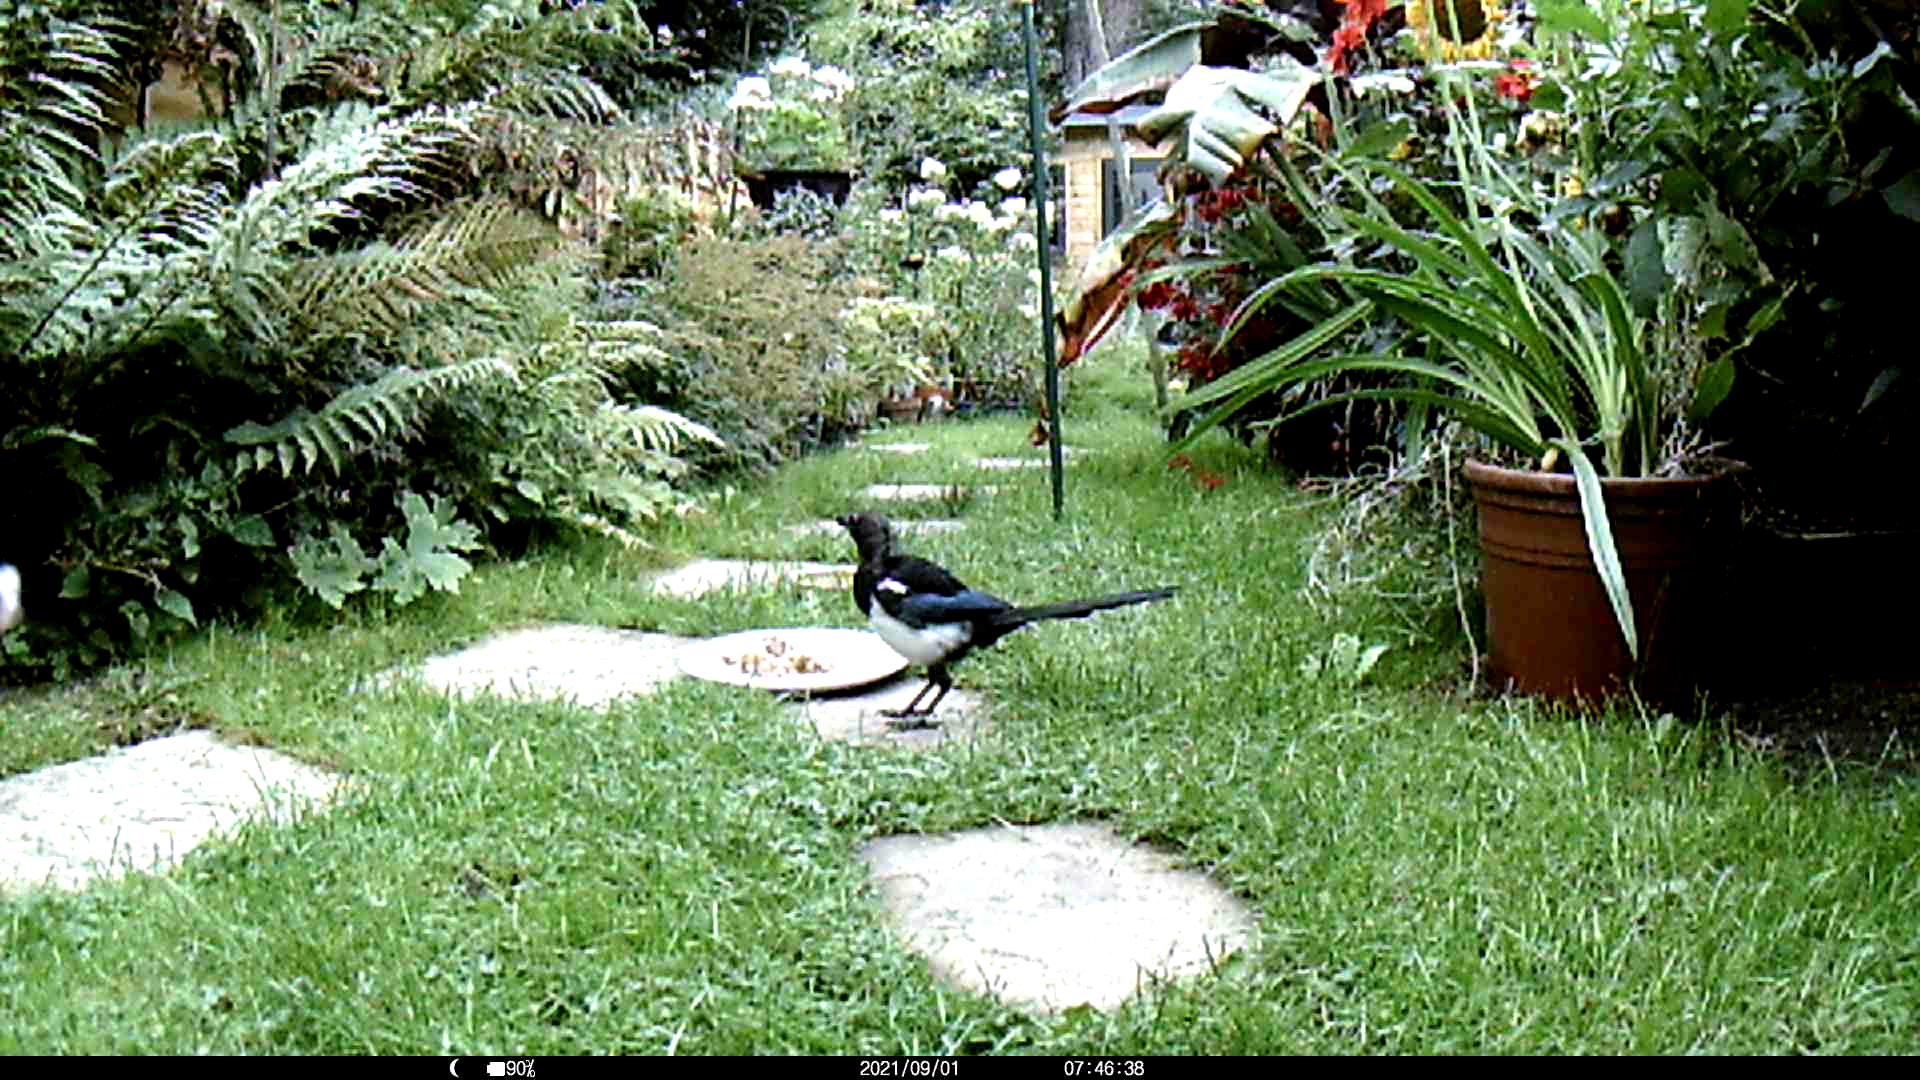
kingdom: Animalia
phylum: Chordata
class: Aves
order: Passeriformes
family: Corvidae
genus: Pica
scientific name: Pica pica
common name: Eurasian magpie
